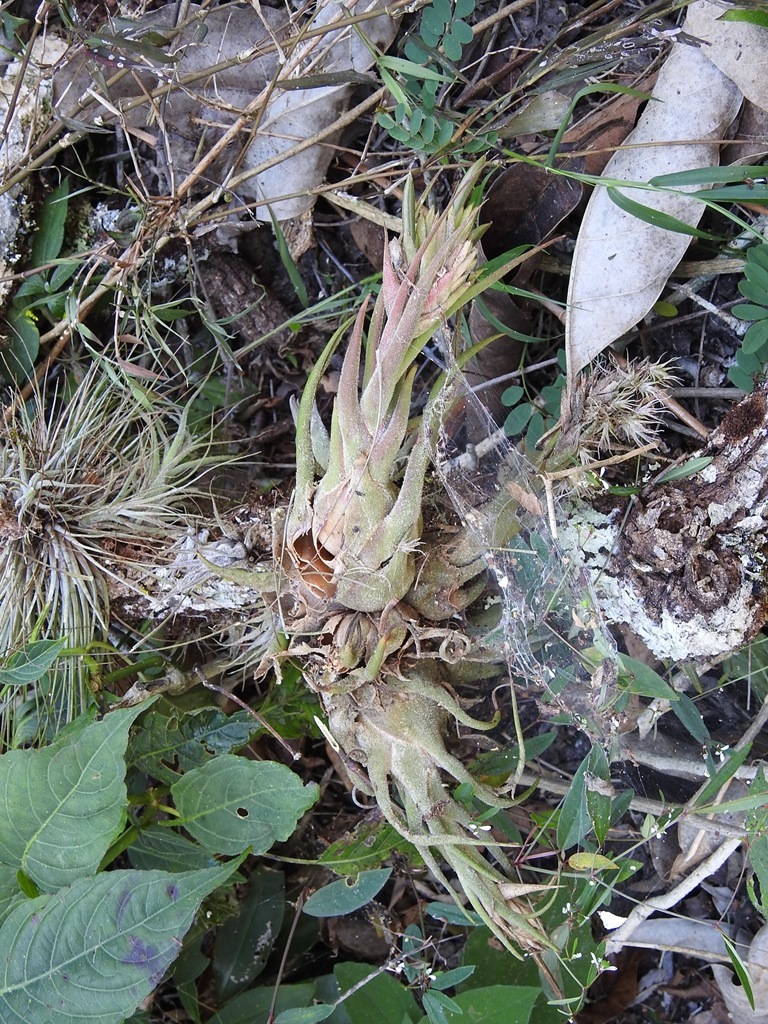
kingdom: Plantae
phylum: Tracheophyta
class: Liliopsida
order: Poales
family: Bromeliaceae
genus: Tillandsia
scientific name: Tillandsia seleriana
